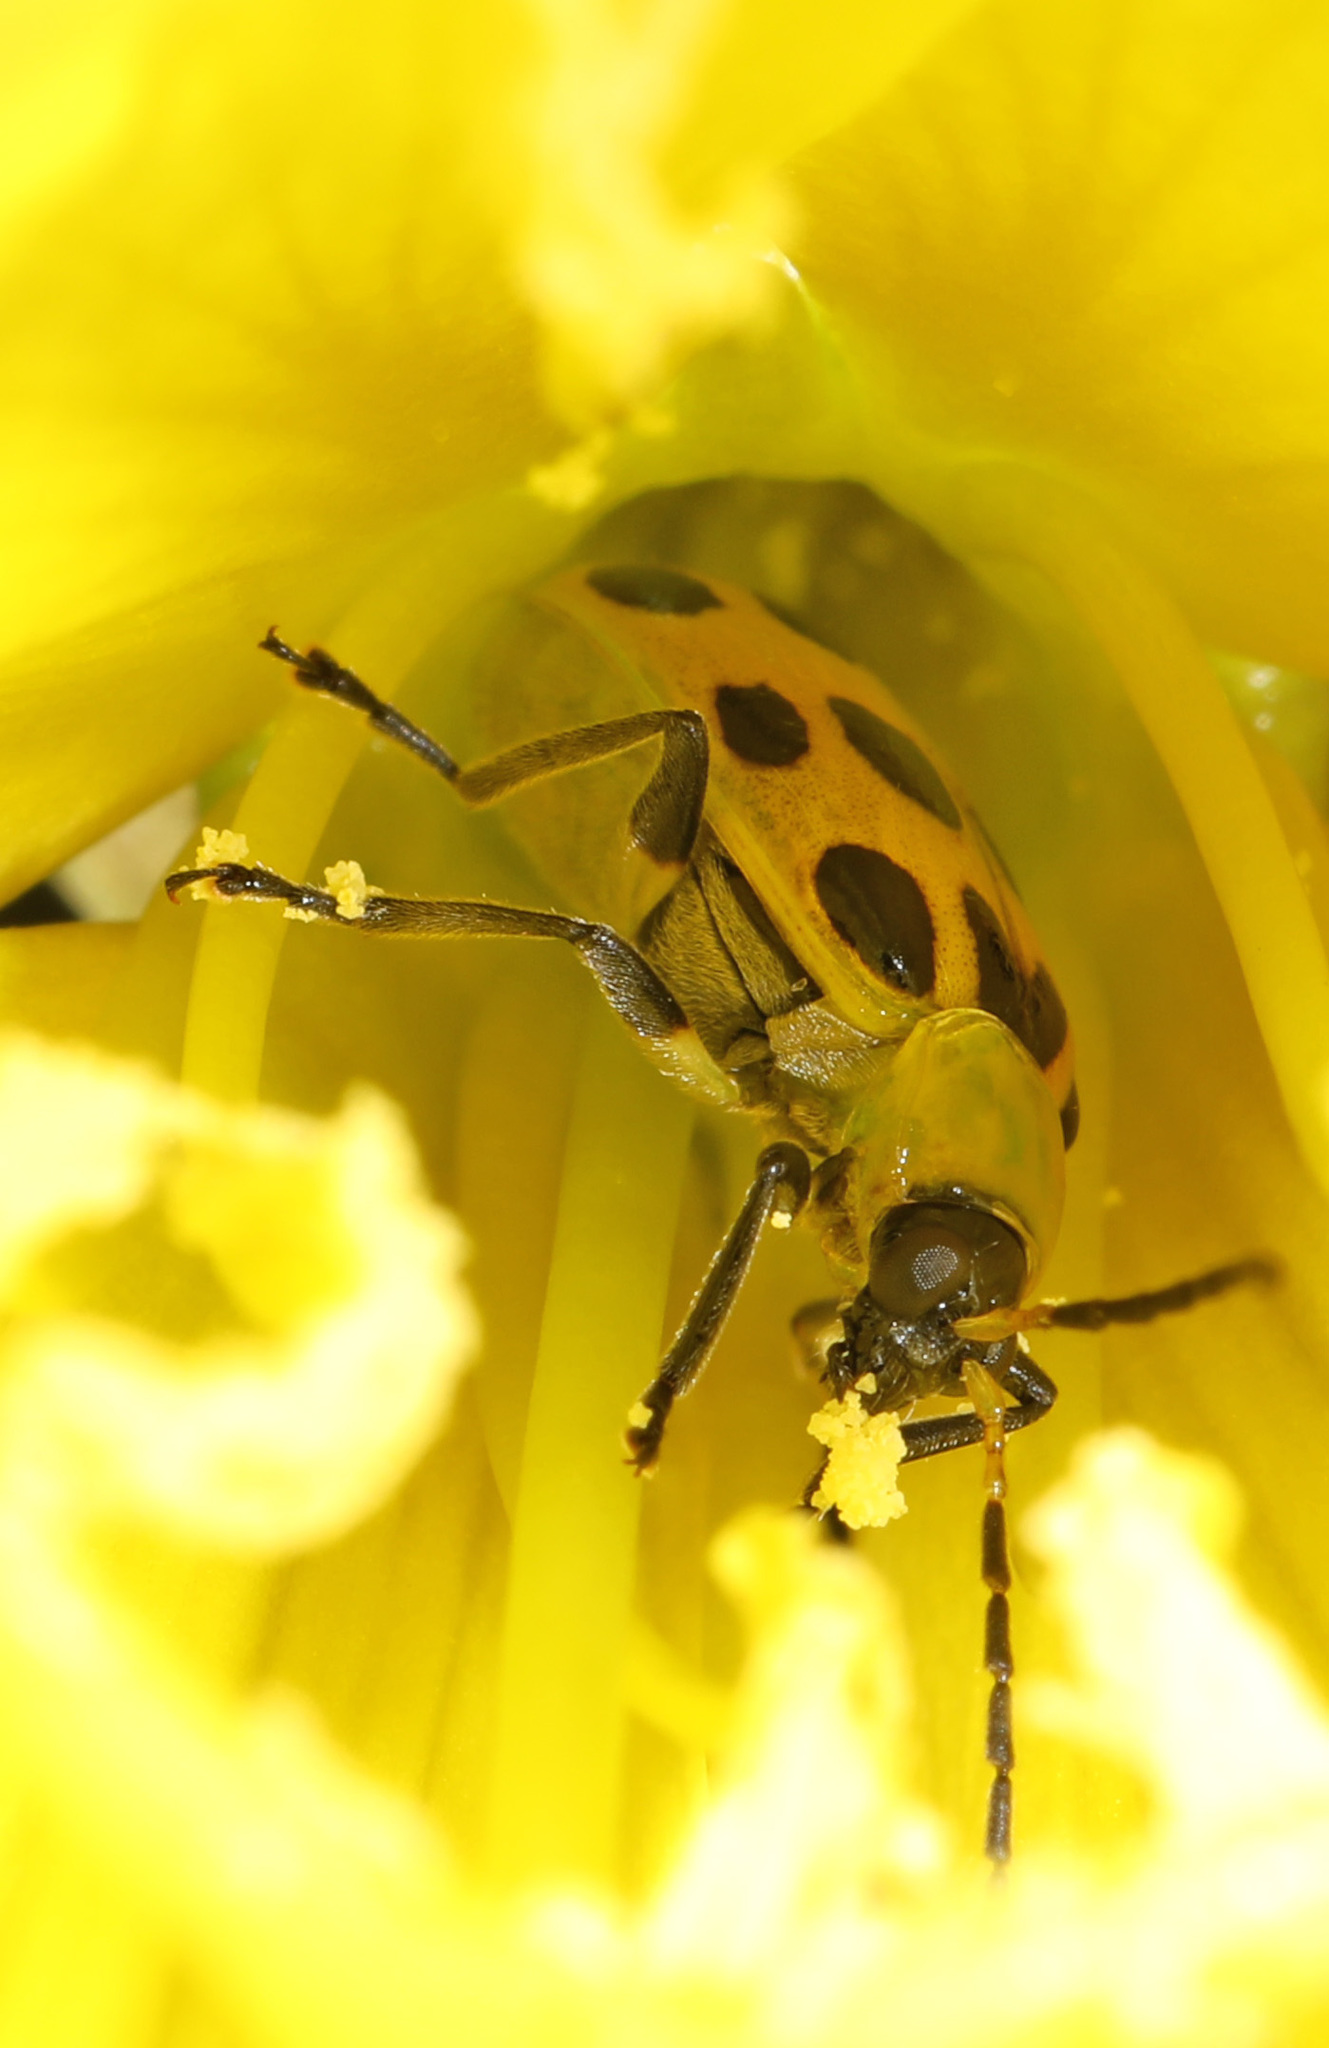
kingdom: Animalia
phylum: Arthropoda
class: Insecta
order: Coleoptera
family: Chrysomelidae
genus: Diabrotica
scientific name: Diabrotica undecimpunctata
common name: Spotted cucumber beetle
